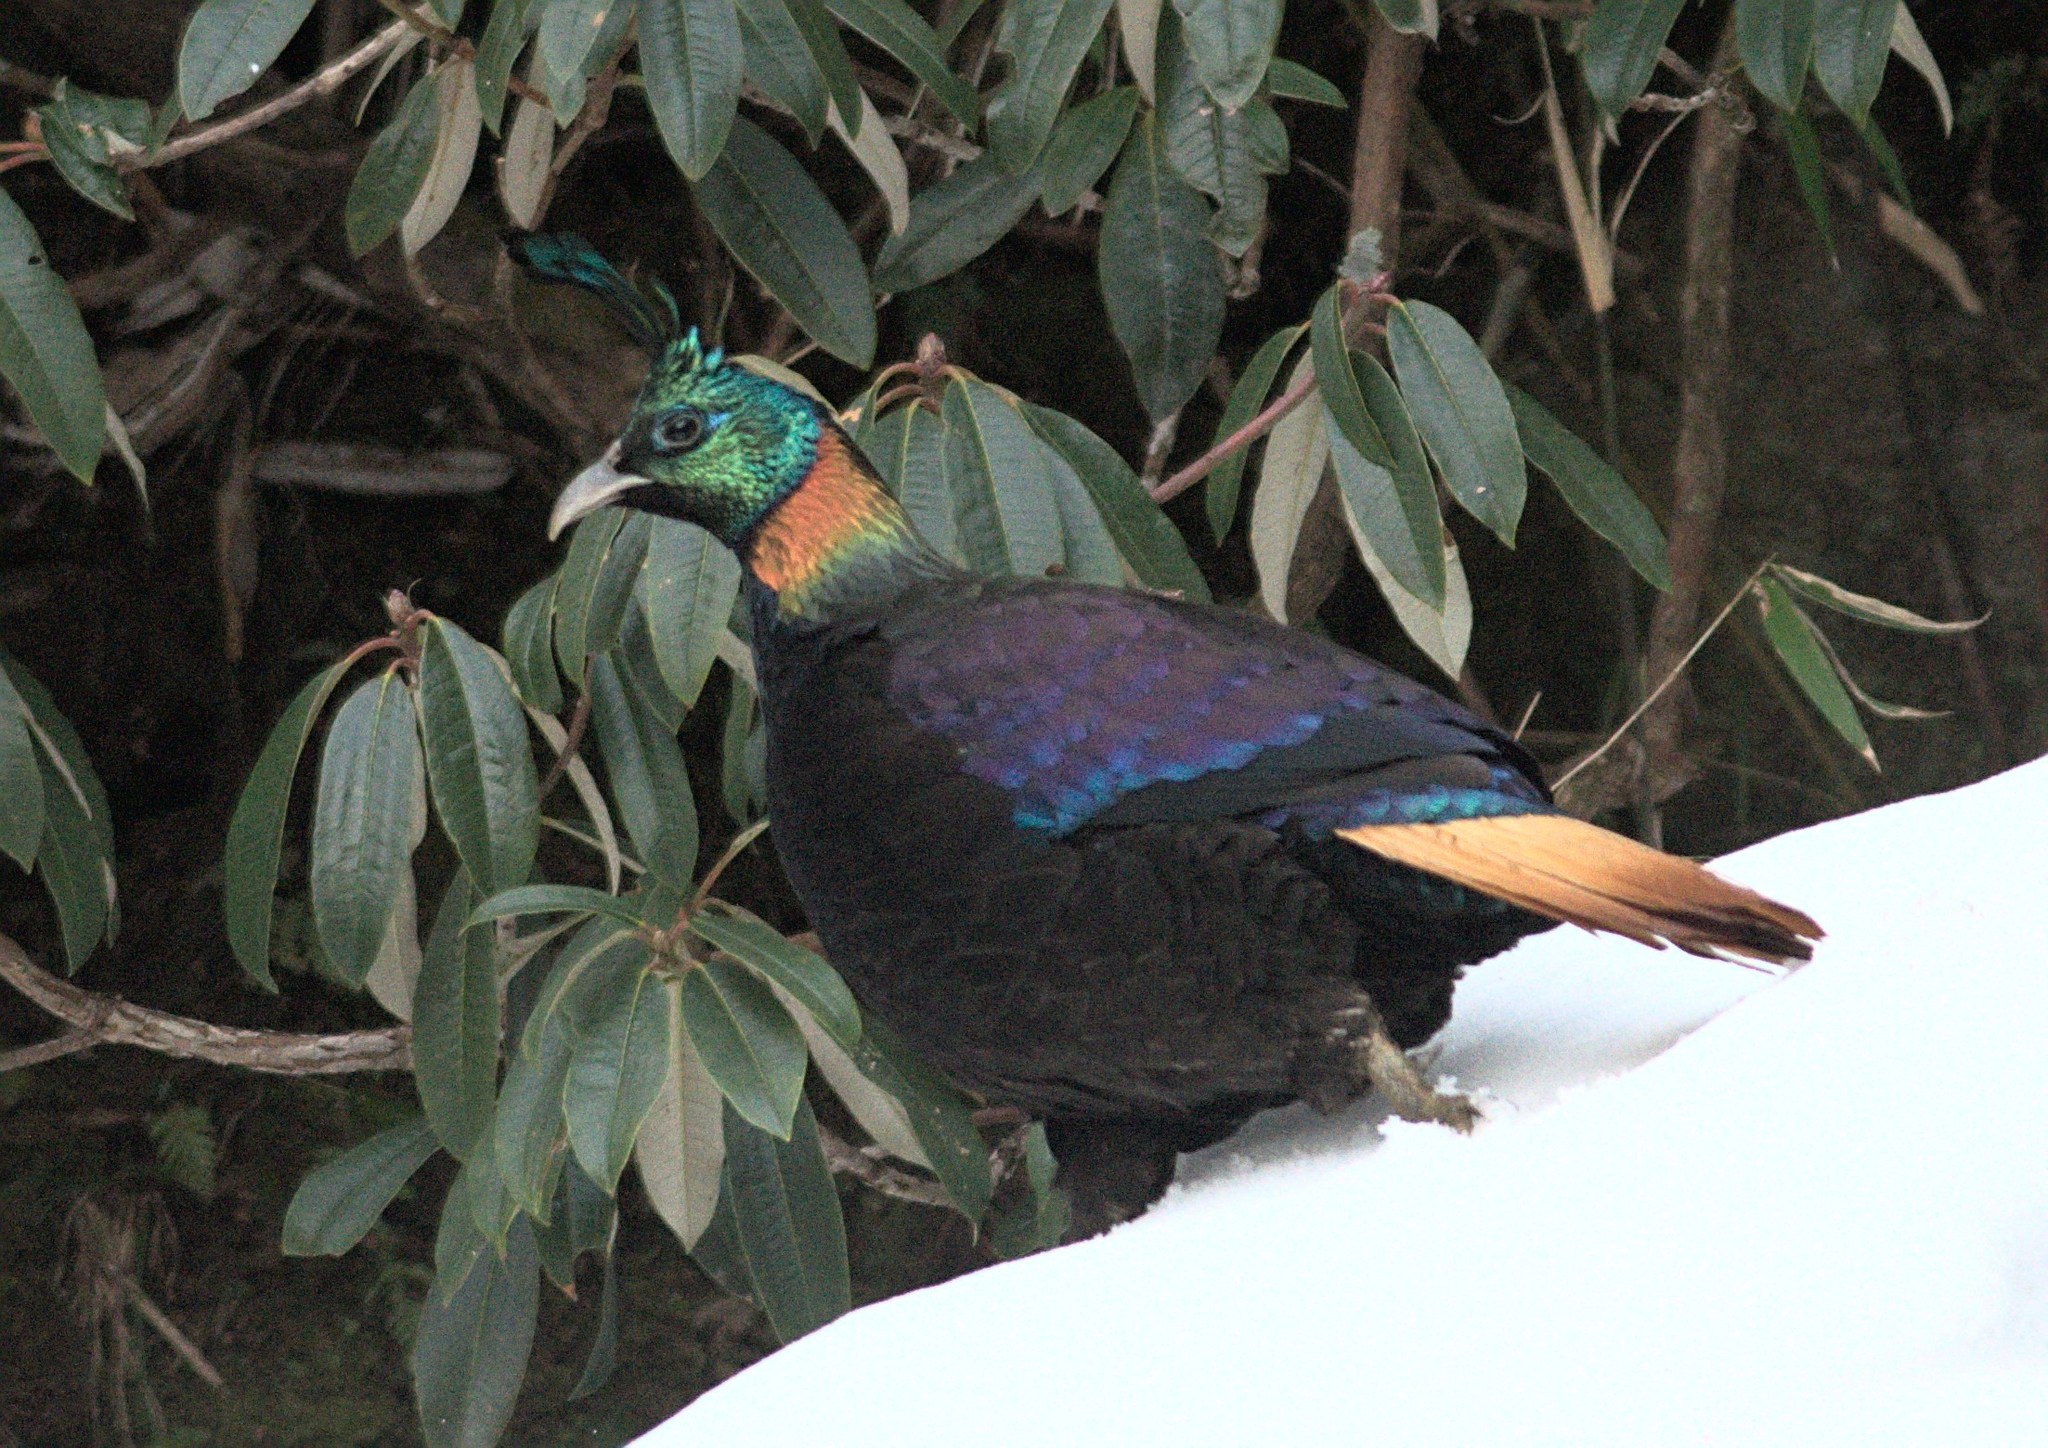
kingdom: Animalia
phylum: Chordata
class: Aves
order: Galliformes
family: Phasianidae
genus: Lophophorus
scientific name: Lophophorus impejanus
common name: Himalayan monal
